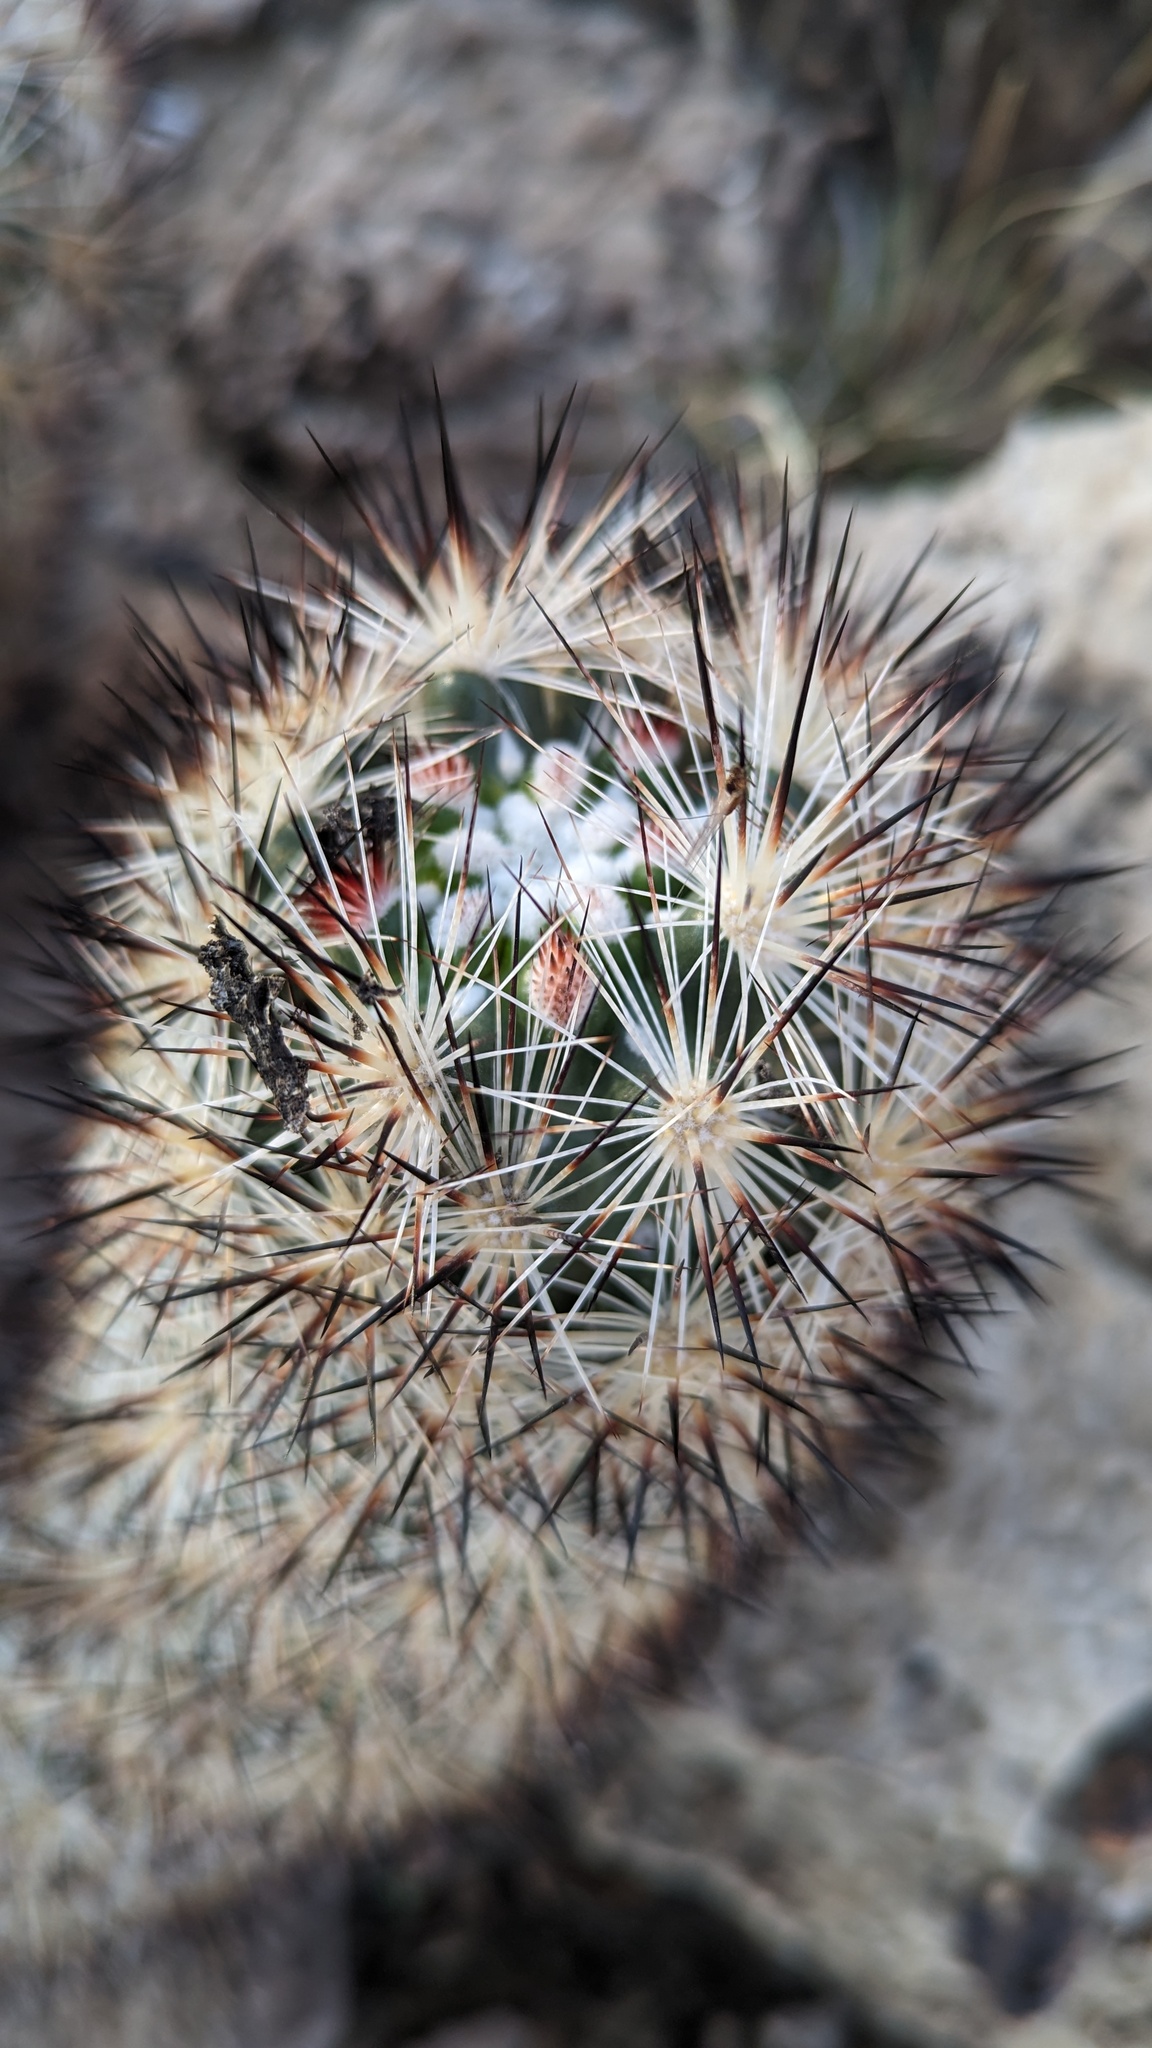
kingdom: Plantae
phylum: Tracheophyta
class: Magnoliopsida
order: Caryophyllales
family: Cactaceae
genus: Pelecyphora
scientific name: Pelecyphora alversonii
